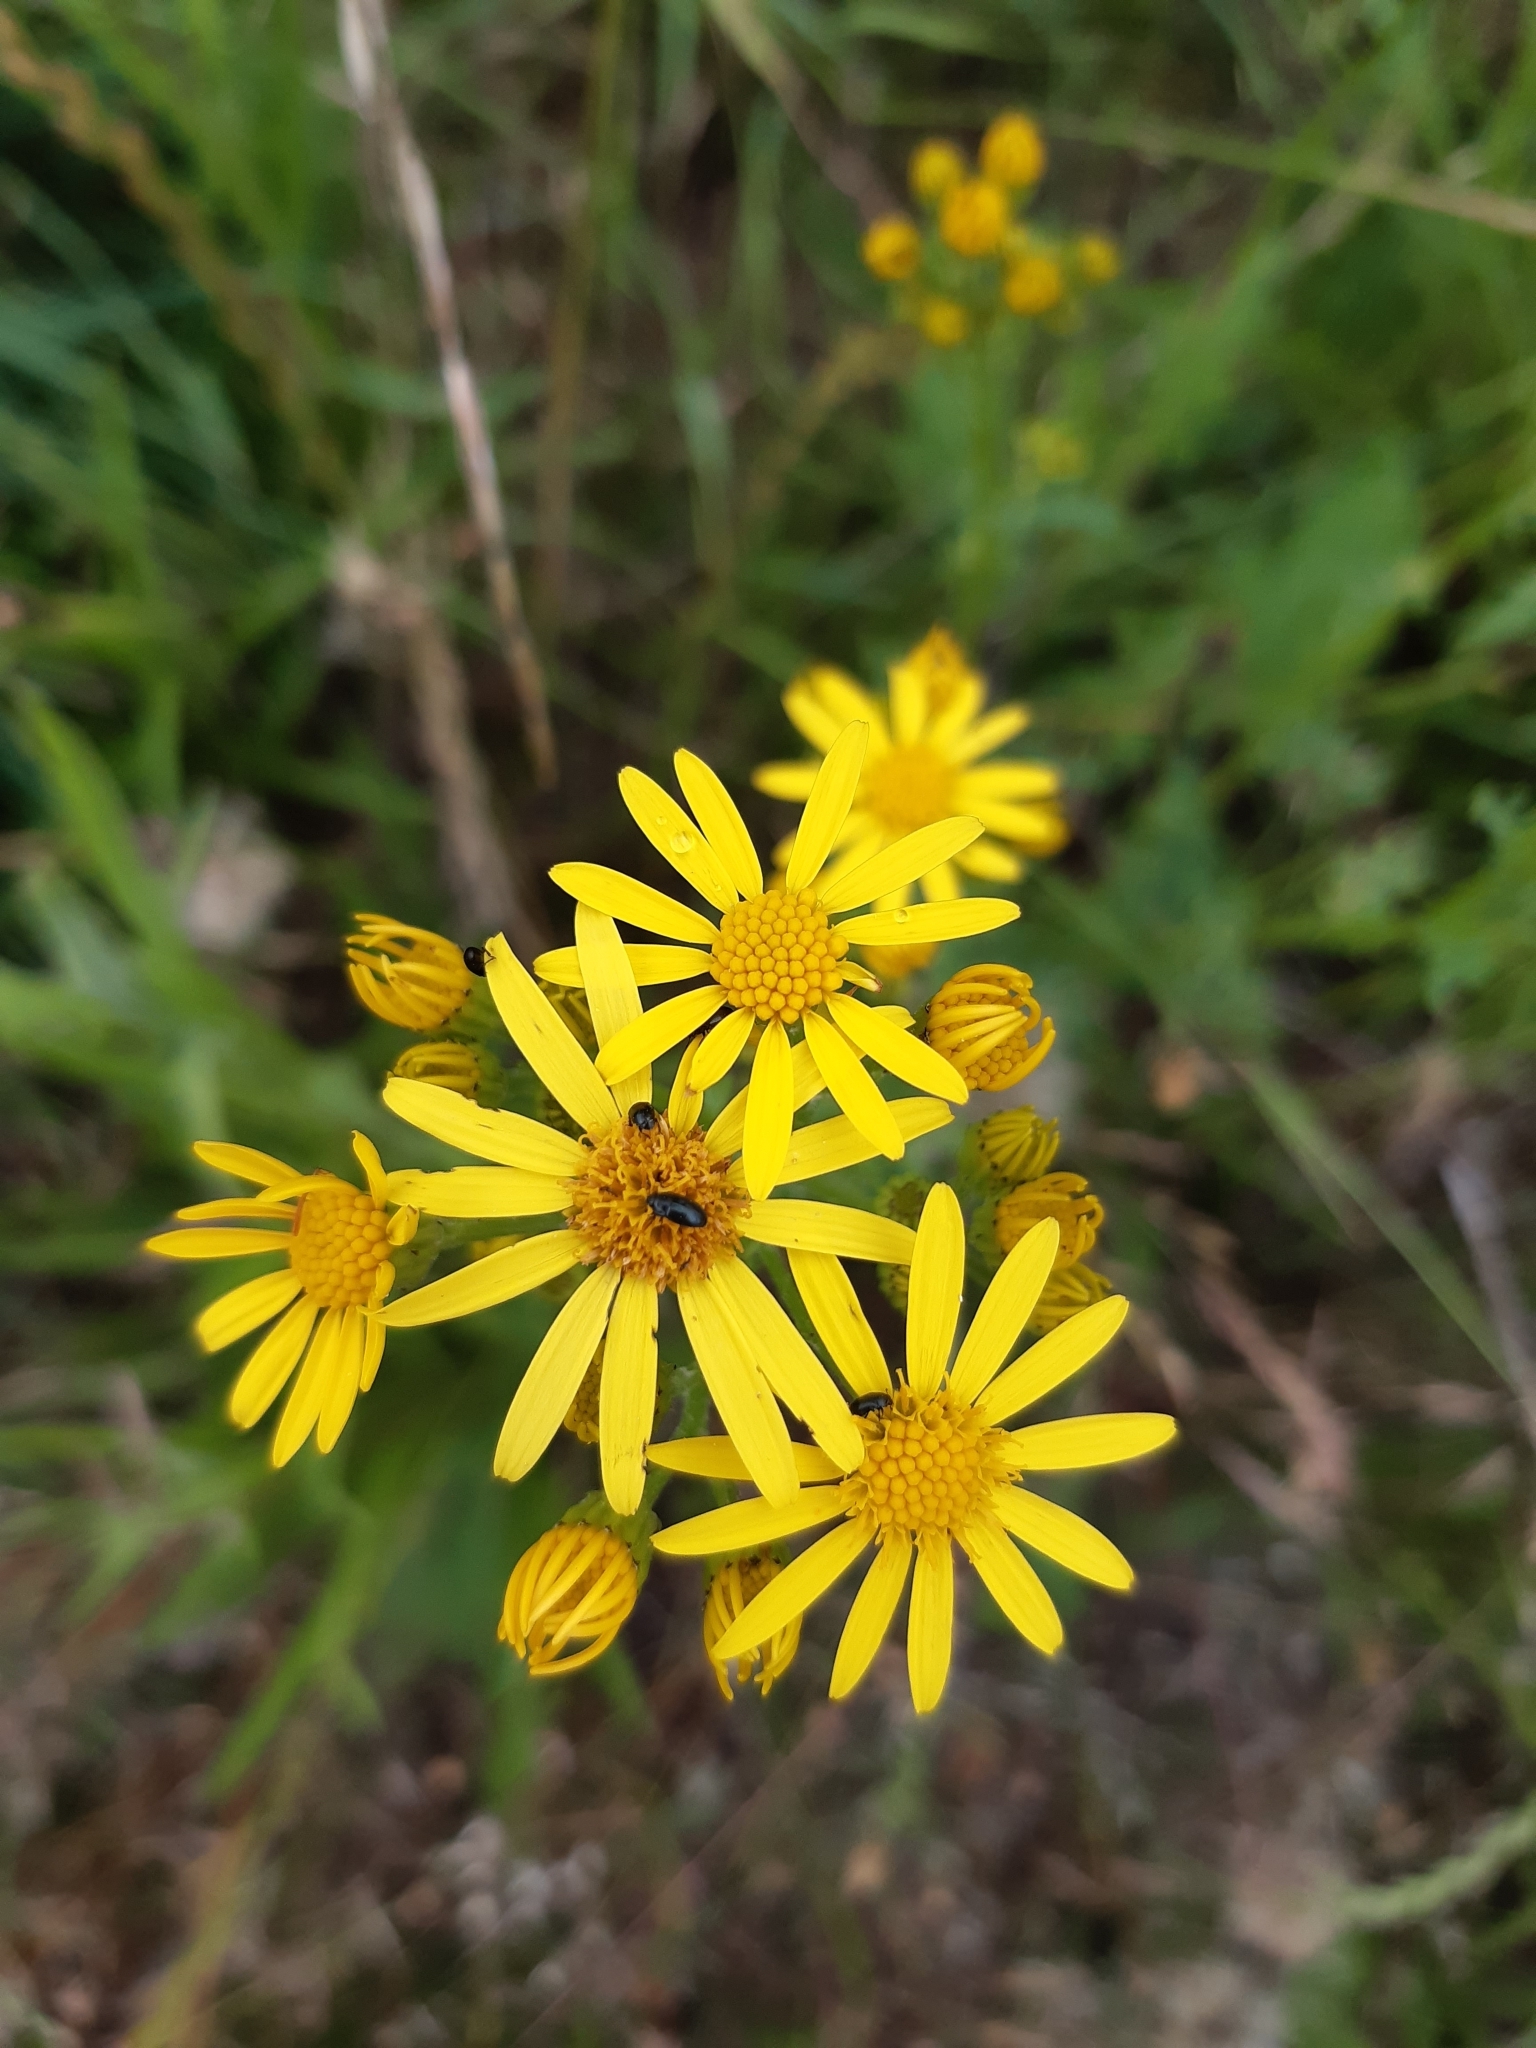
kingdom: Plantae
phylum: Tracheophyta
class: Magnoliopsida
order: Asterales
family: Asteraceae
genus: Jacobaea
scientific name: Jacobaea vulgaris
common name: Stinking willie
